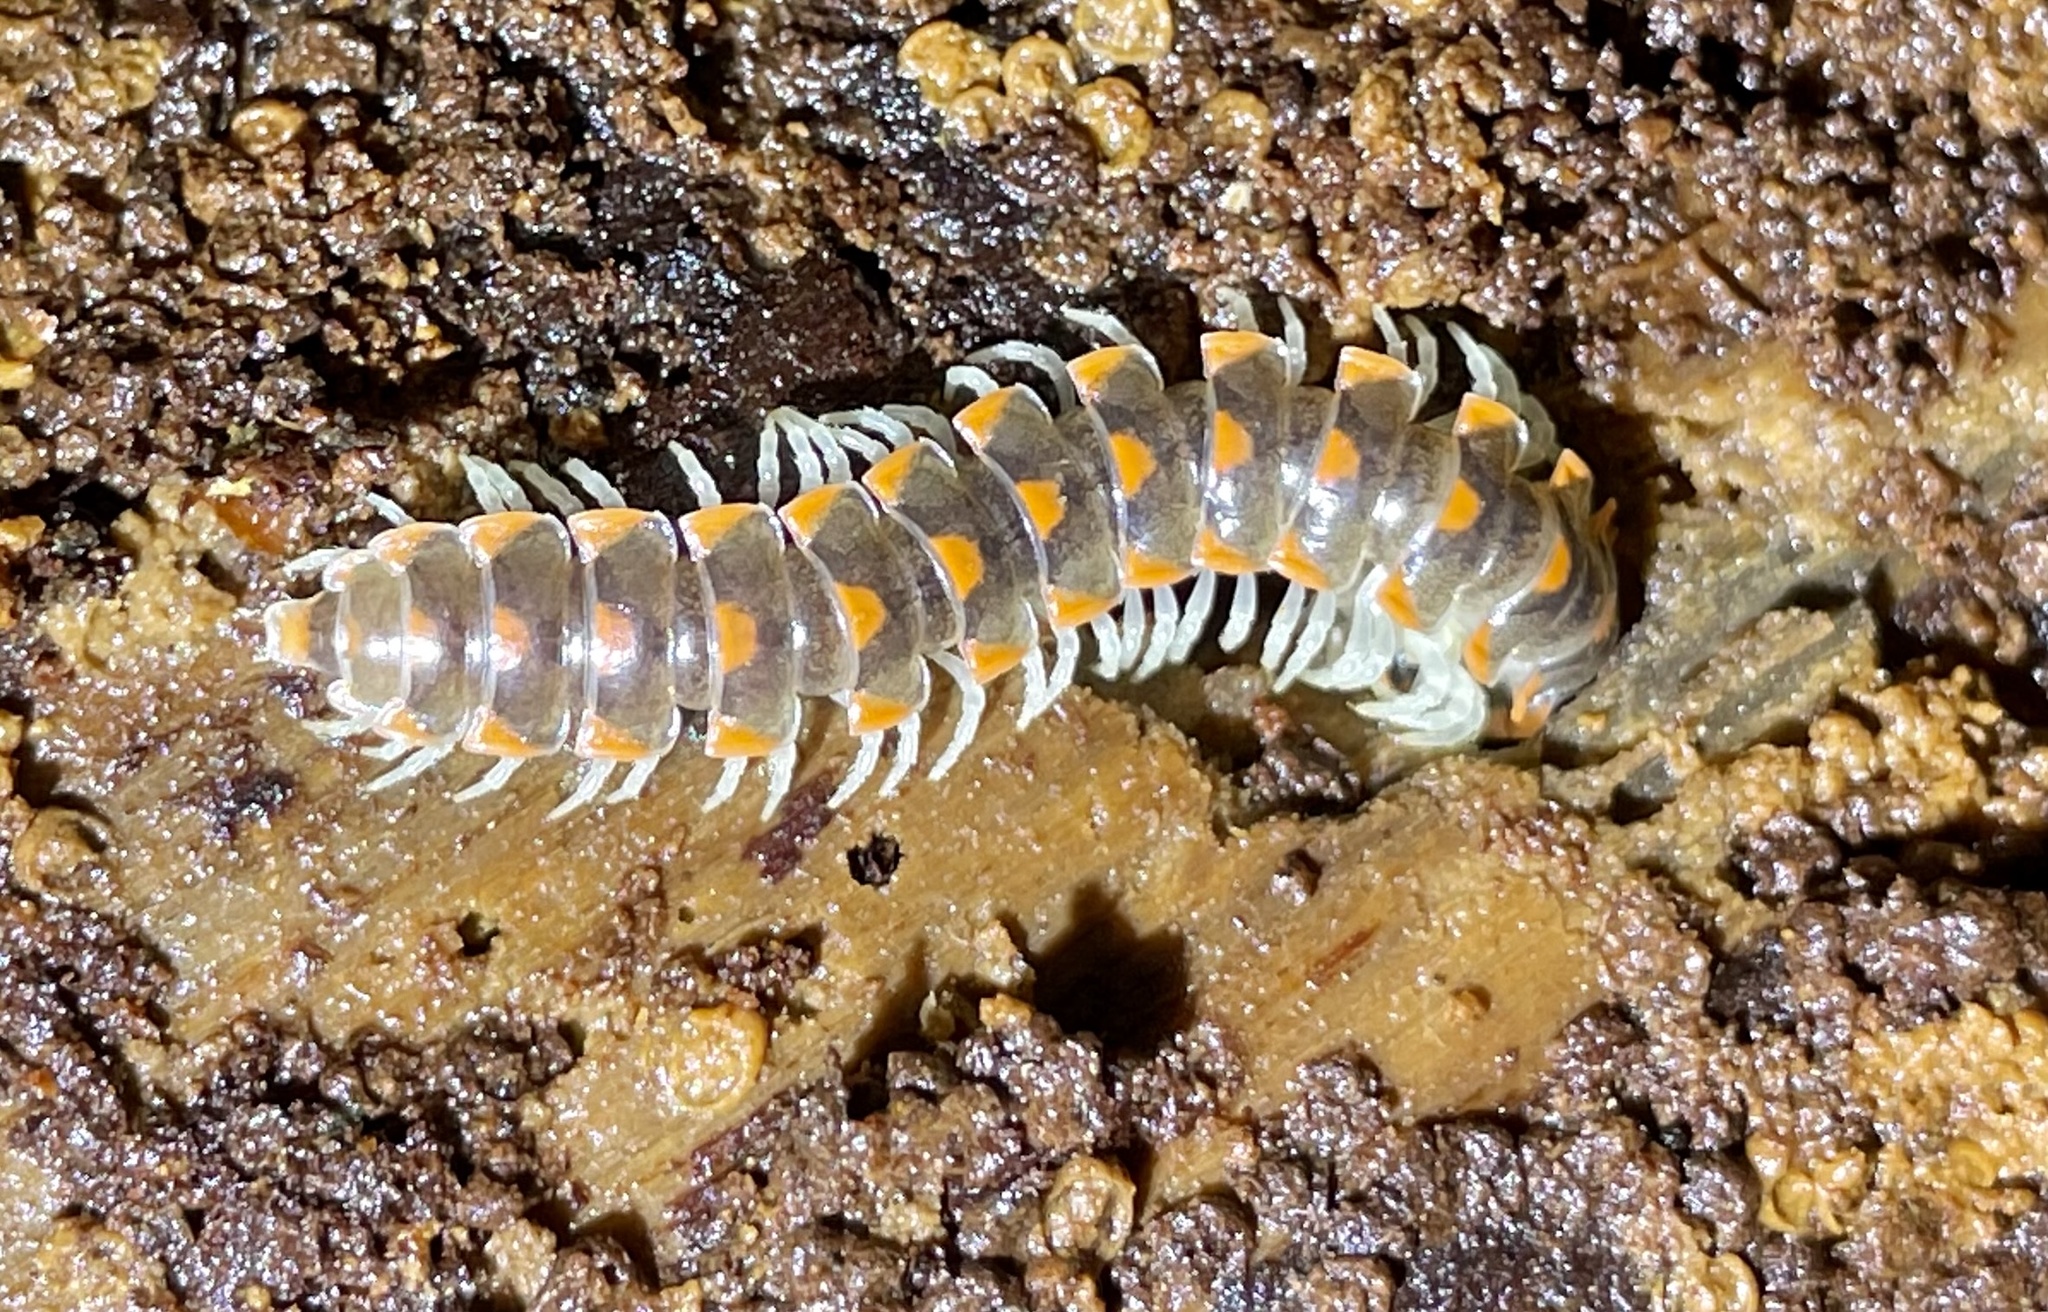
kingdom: Animalia
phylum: Arthropoda
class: Diplopoda
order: Polydesmida
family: Xystodesmidae
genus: Euryurus
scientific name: Euryurus maculatus
